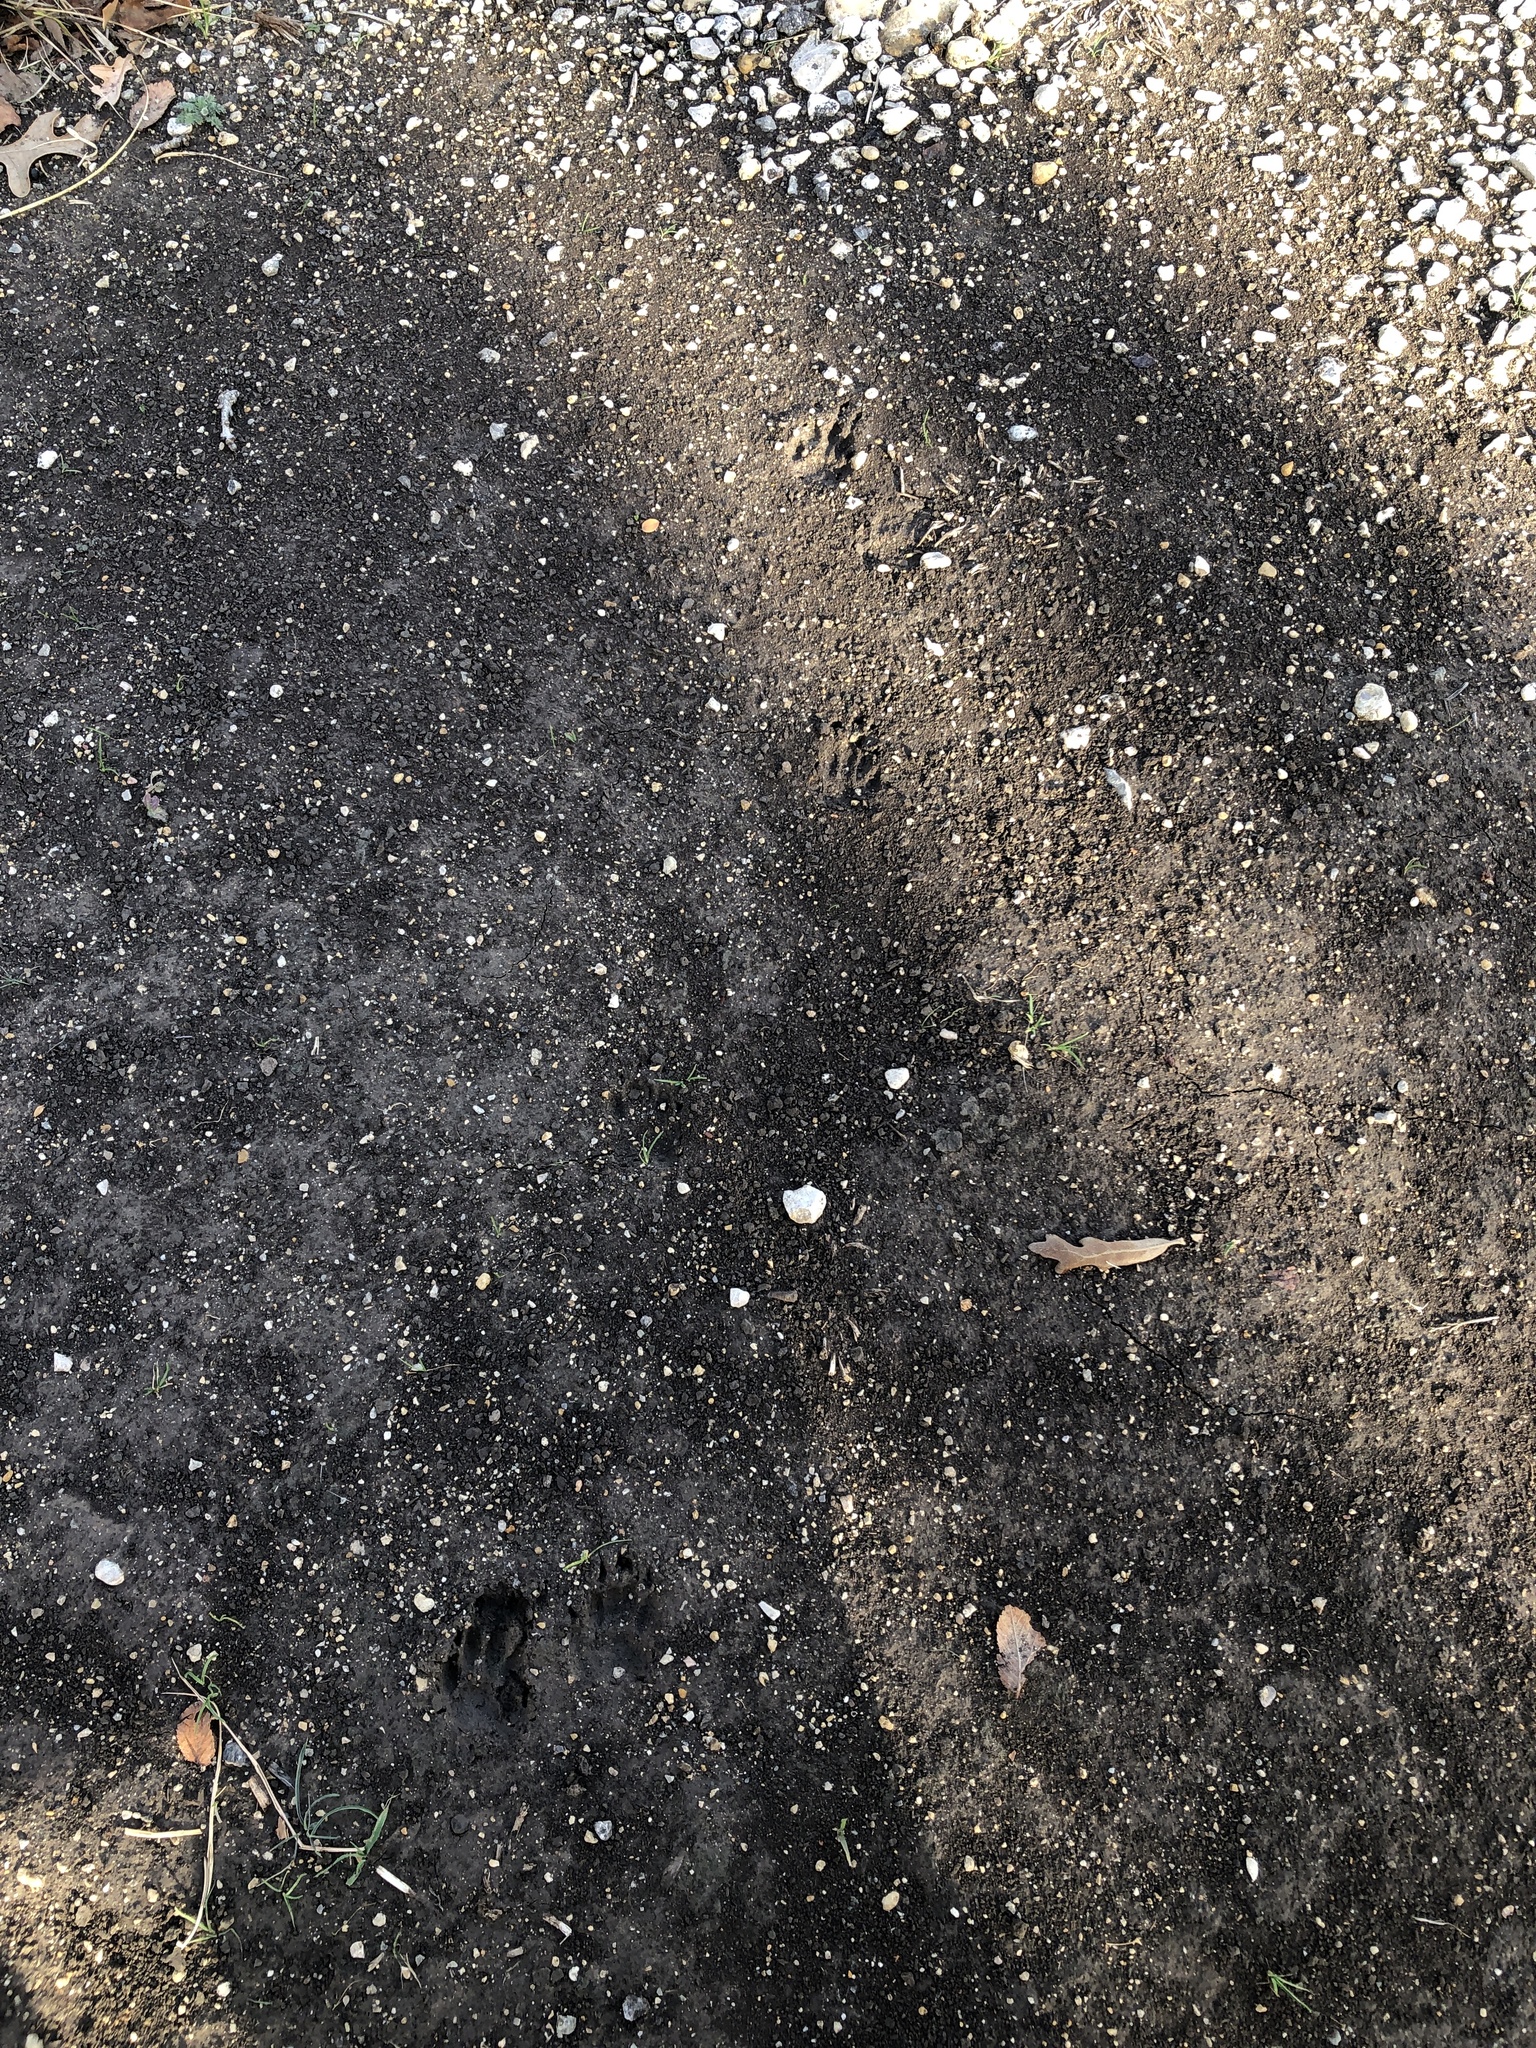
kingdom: Animalia
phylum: Chordata
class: Mammalia
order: Rodentia
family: Sciuridae
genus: Sciurus
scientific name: Sciurus niger
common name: Fox squirrel
